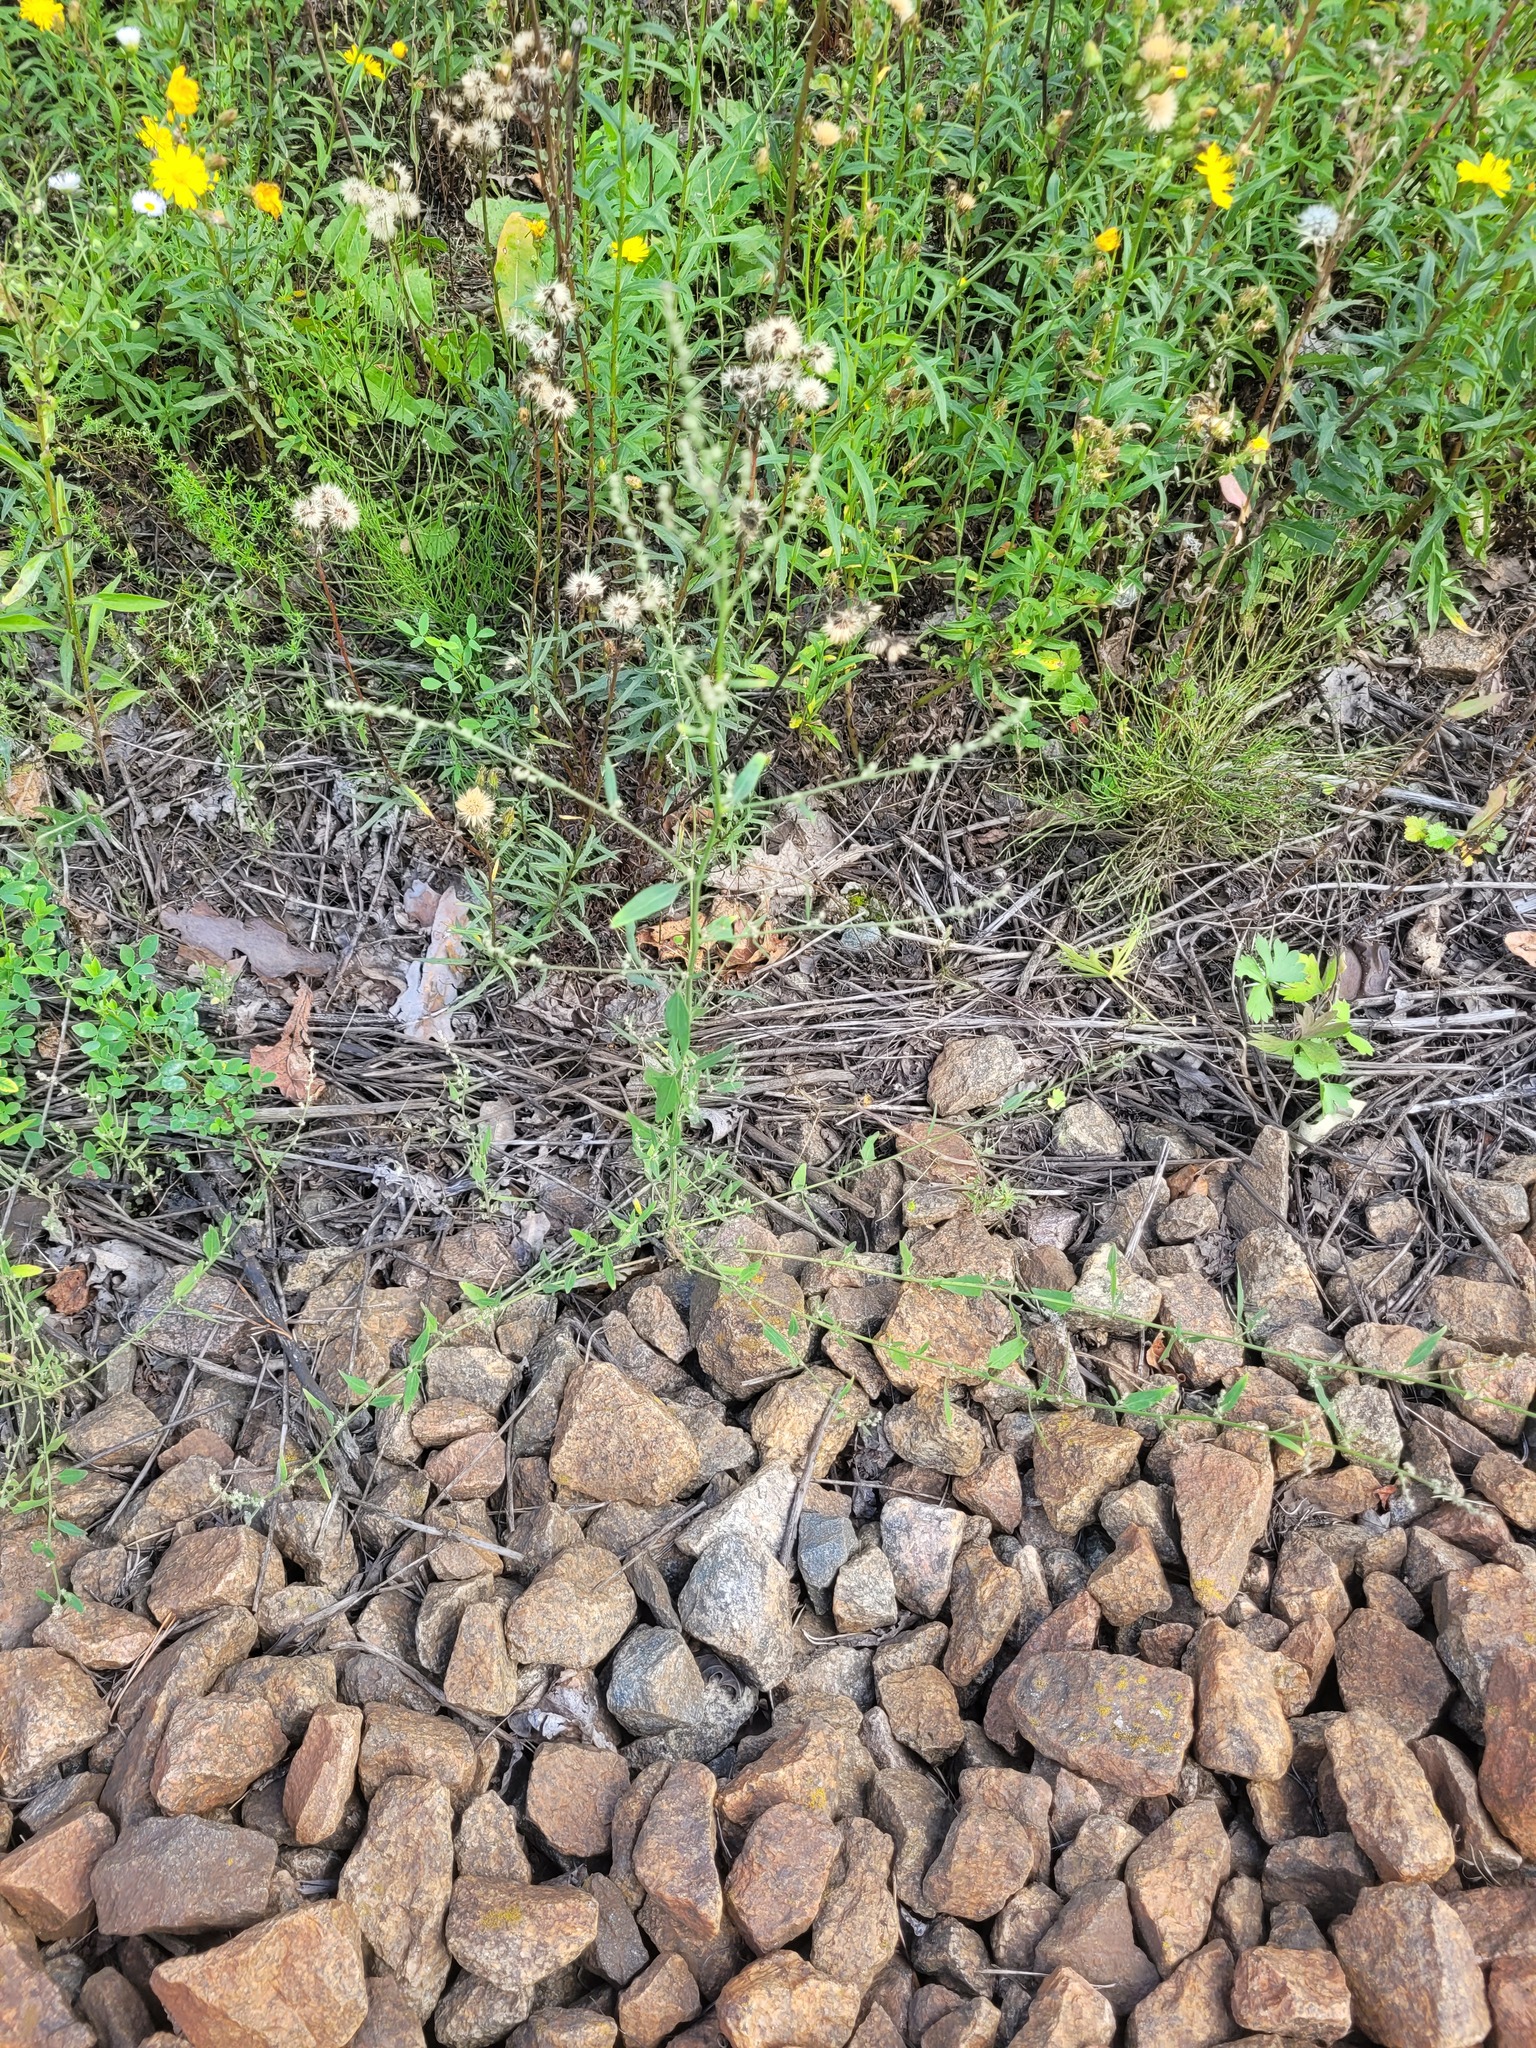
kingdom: Plantae
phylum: Tracheophyta
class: Magnoliopsida
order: Caryophyllales
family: Amaranthaceae
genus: Atriplex
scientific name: Atriplex patula
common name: Common orache
